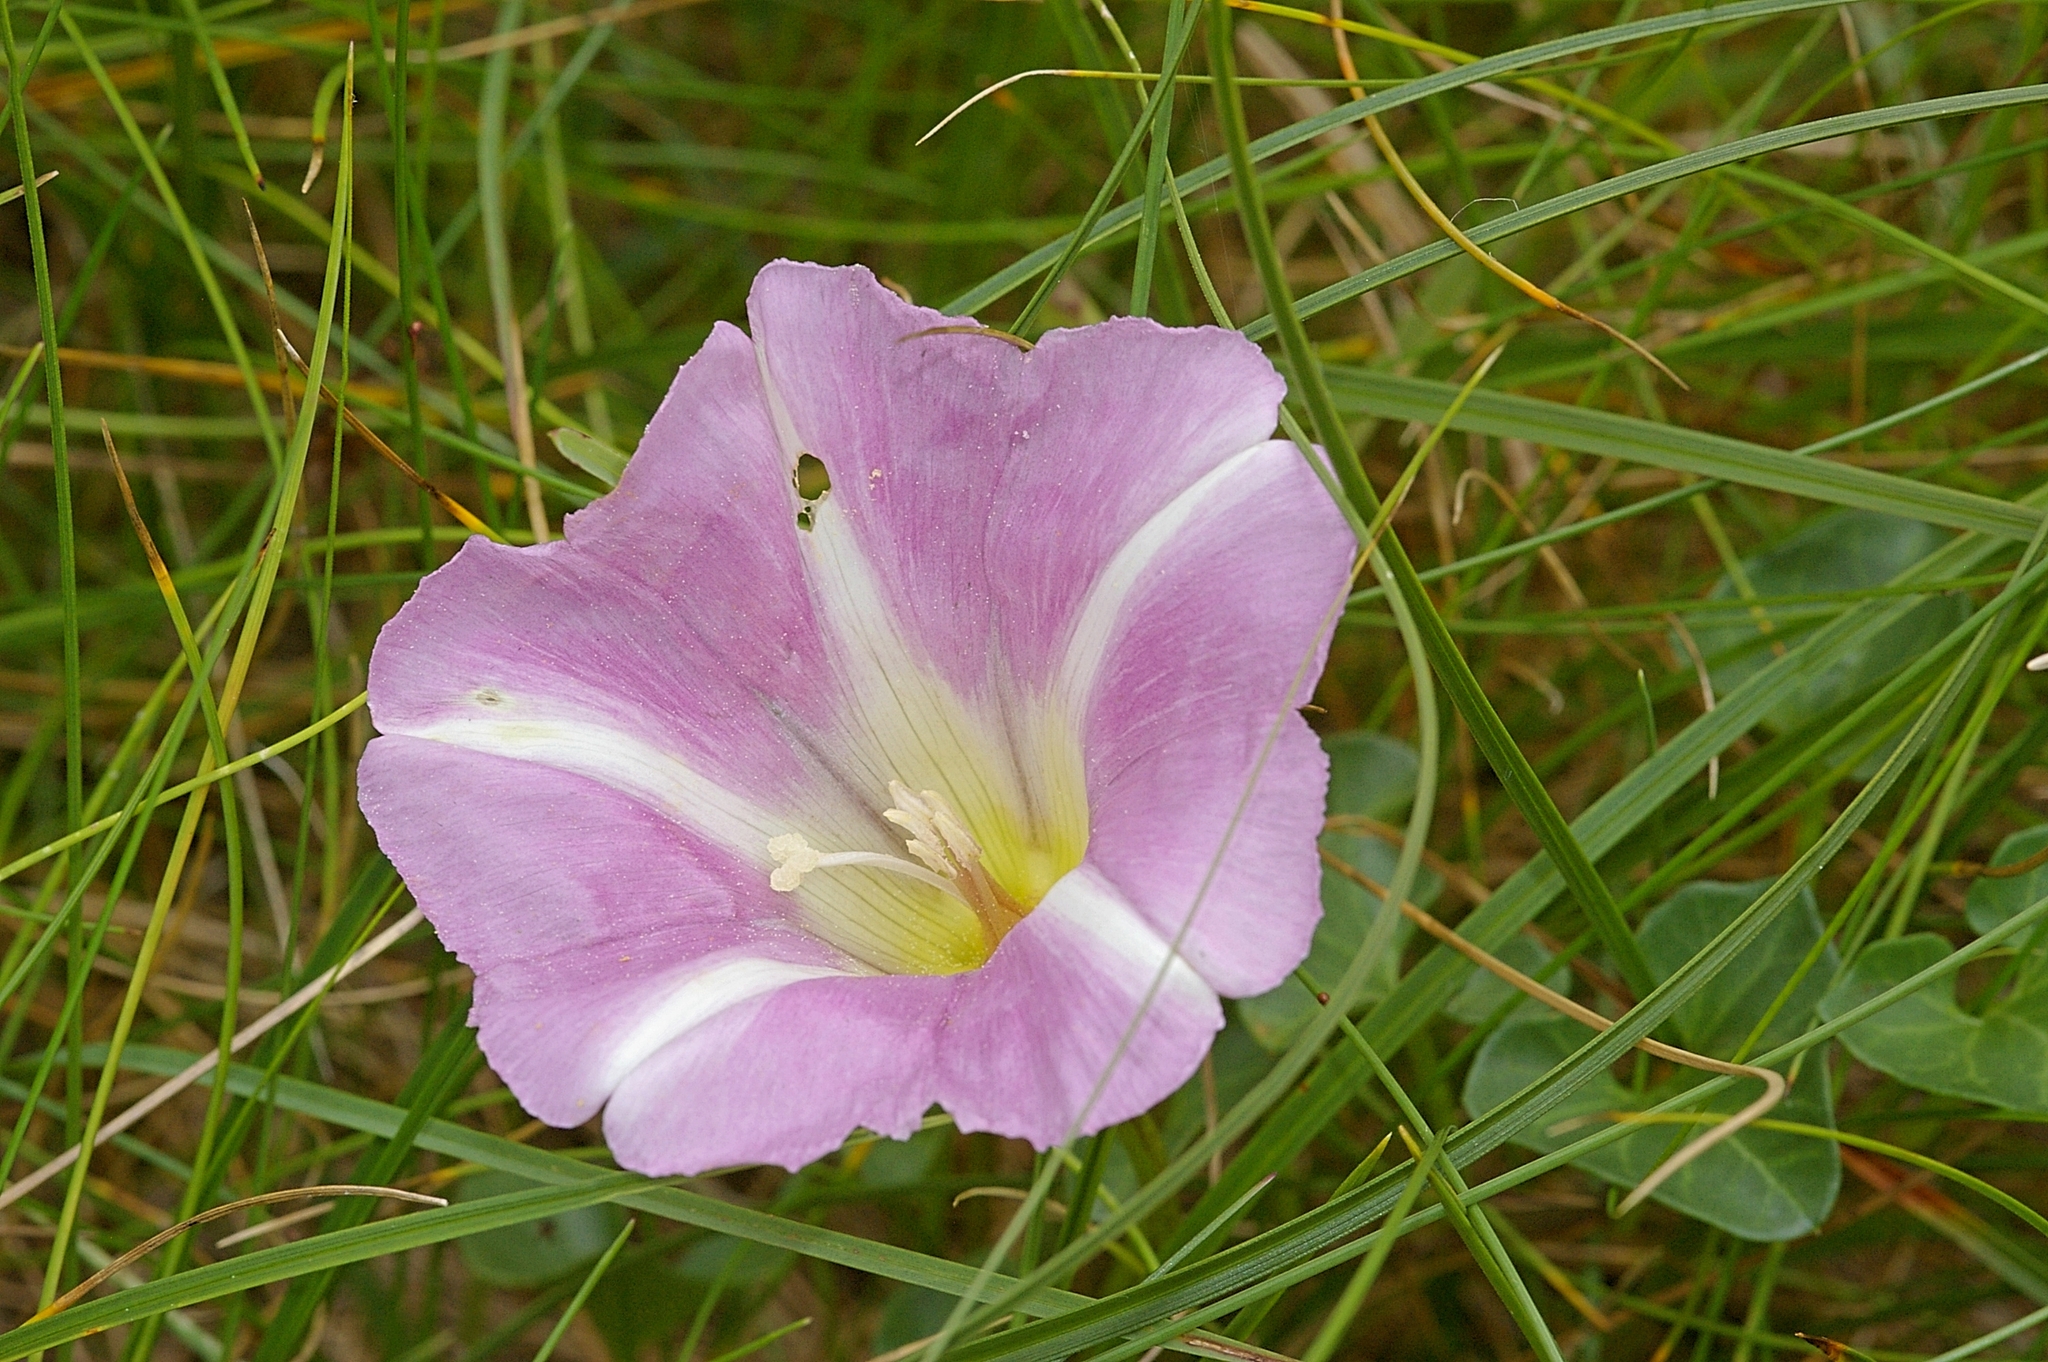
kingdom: Plantae
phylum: Tracheophyta
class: Magnoliopsida
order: Solanales
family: Convolvulaceae
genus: Calystegia
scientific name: Calystegia soldanella
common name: Sea bindweed
